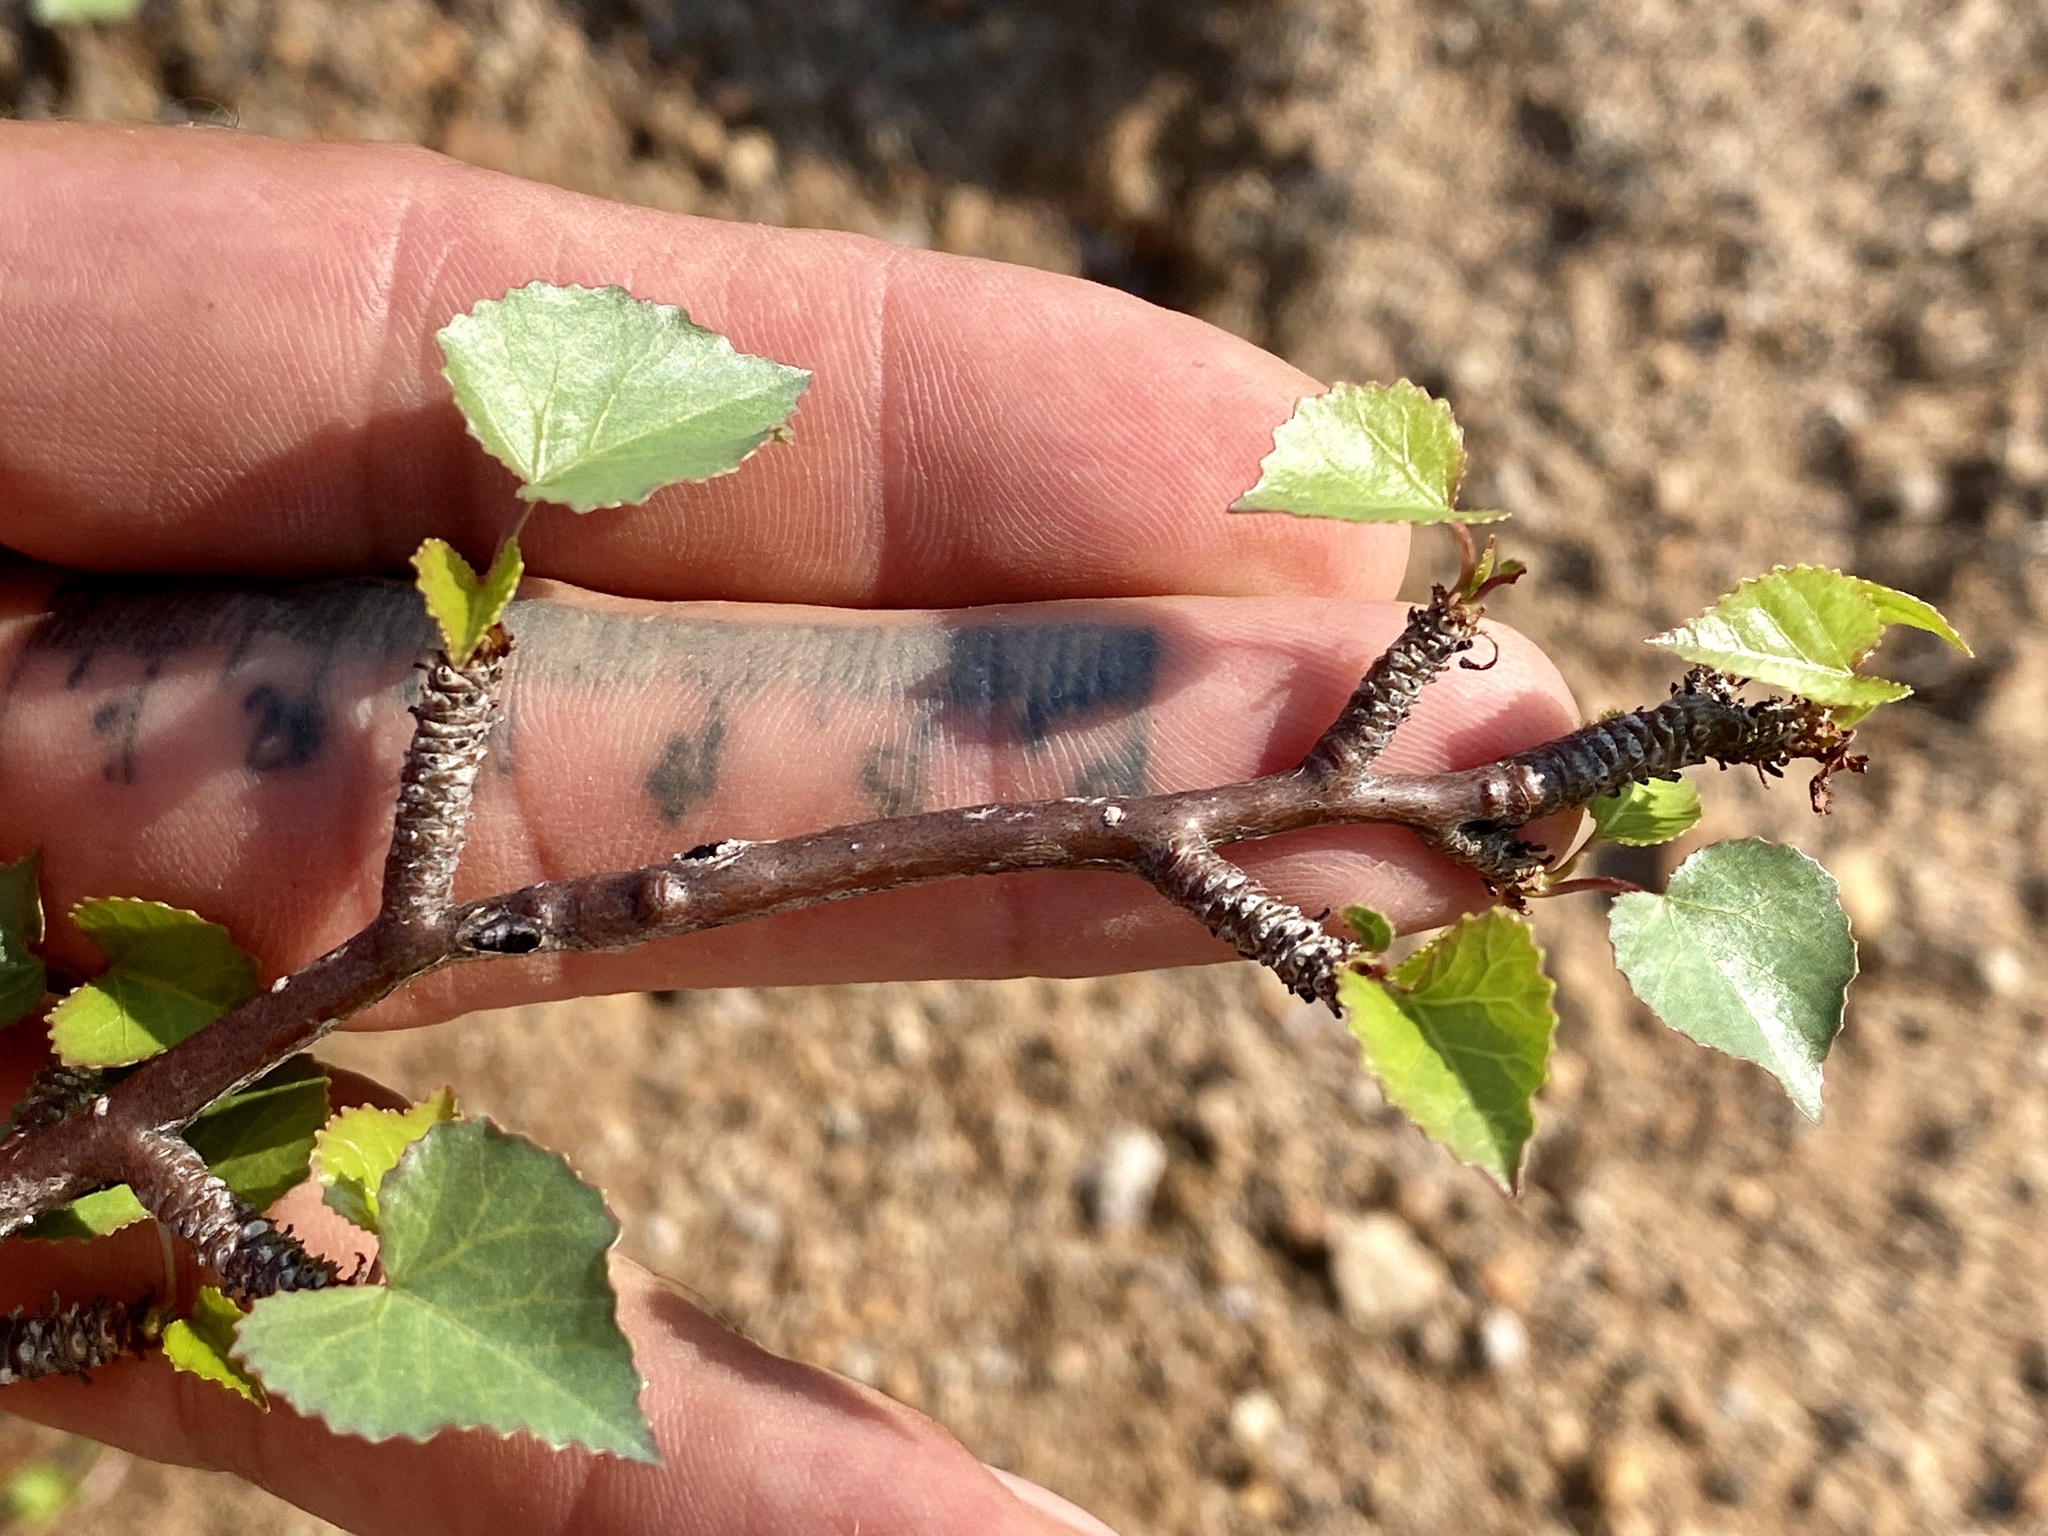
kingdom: Plantae
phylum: Tracheophyta
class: Magnoliopsida
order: Malpighiales
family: Euphorbiaceae
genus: Jatropha
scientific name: Jatropha cardiophylla
